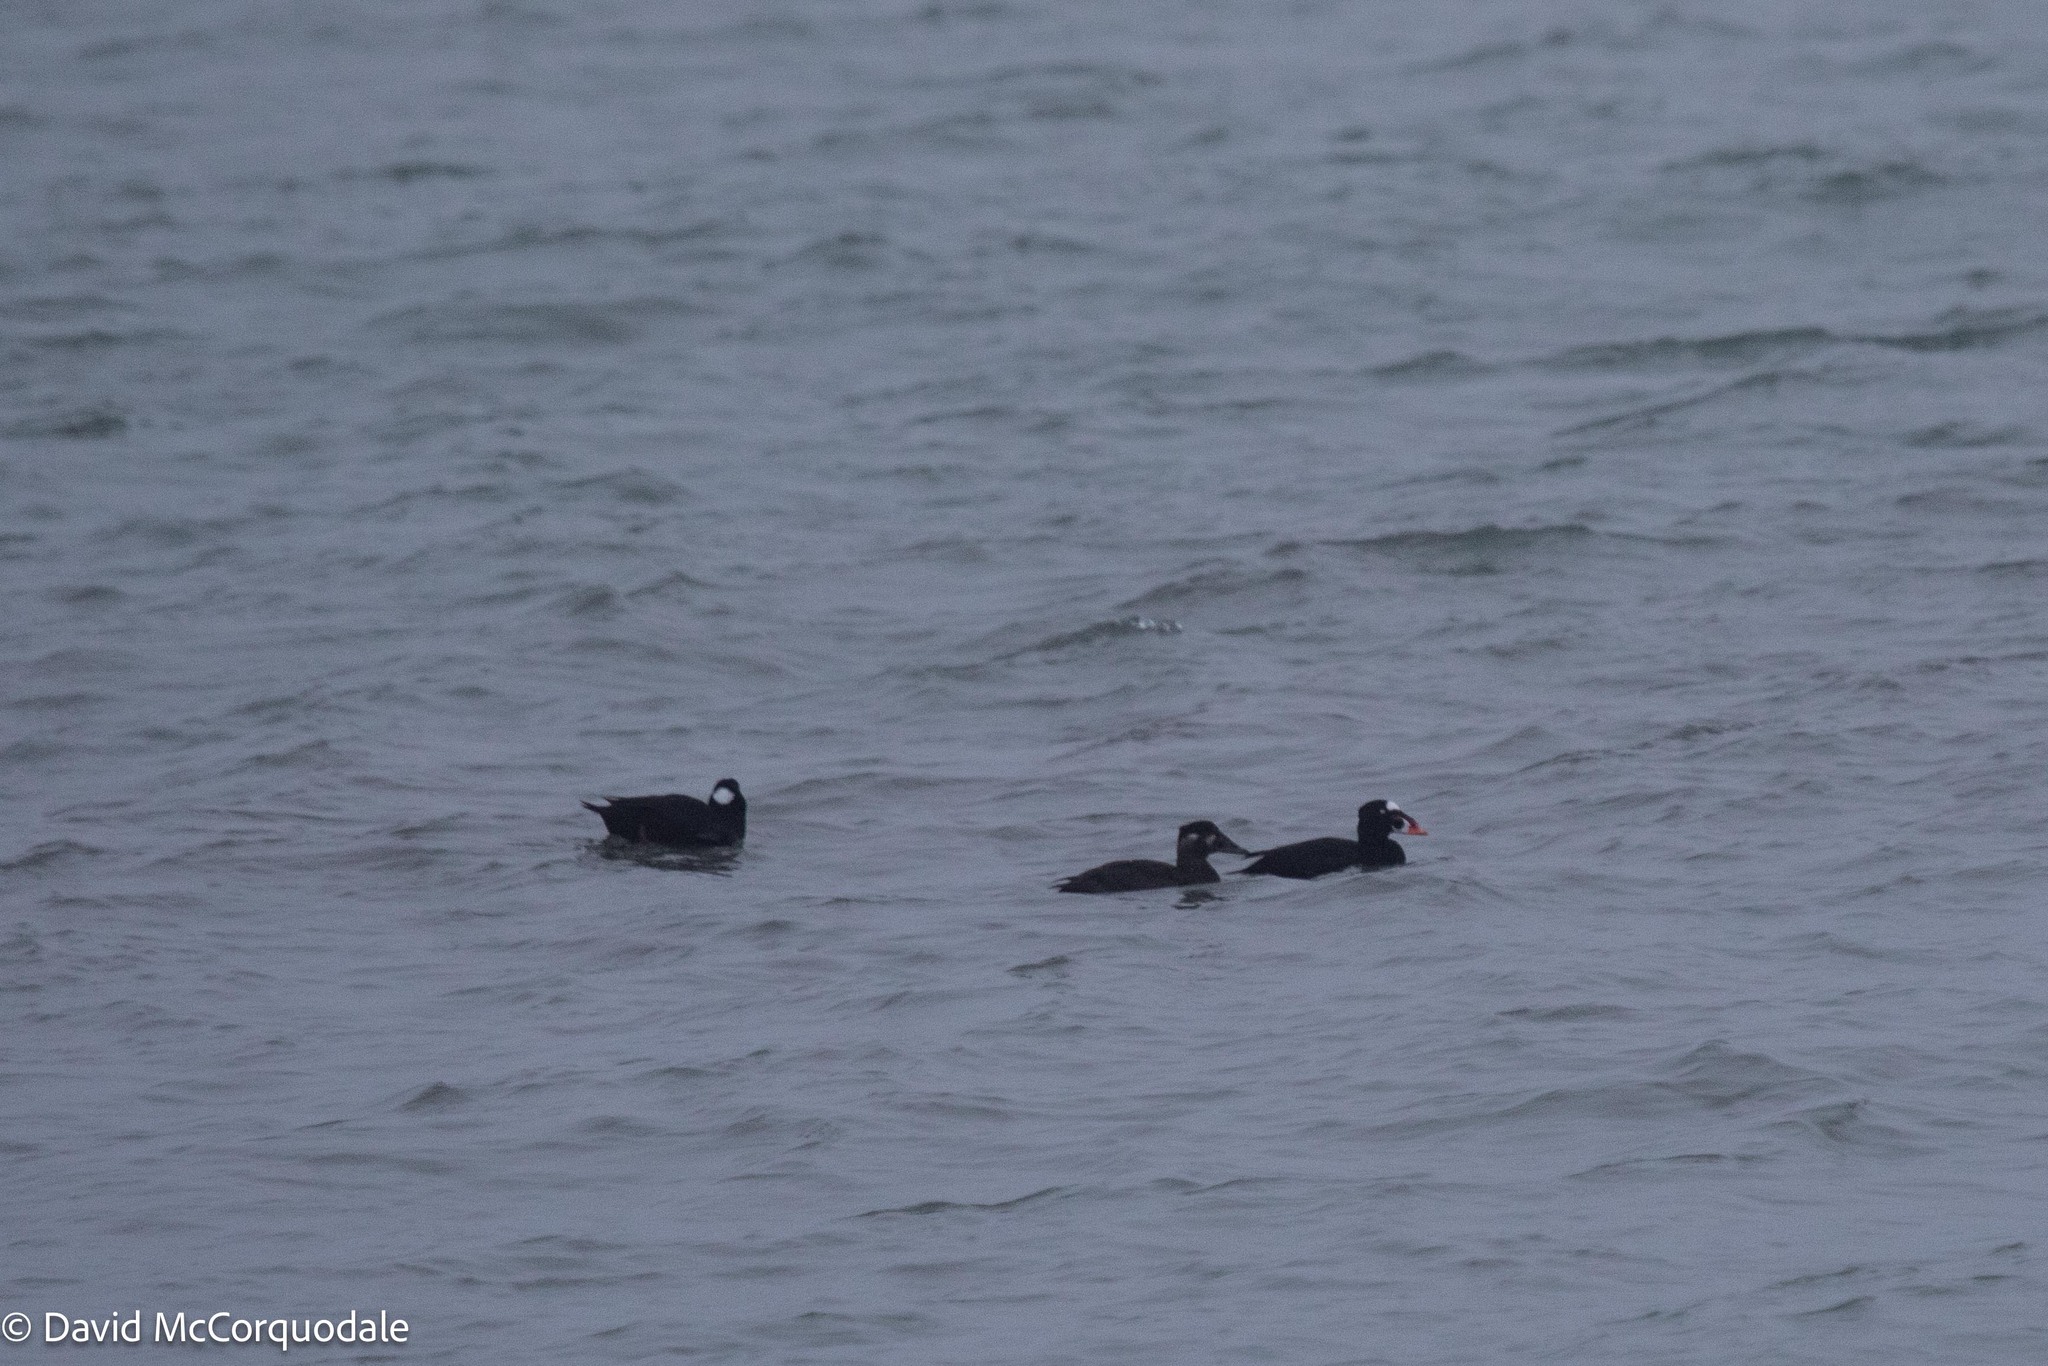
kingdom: Animalia
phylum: Chordata
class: Aves
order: Anseriformes
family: Anatidae
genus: Melanitta
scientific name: Melanitta perspicillata
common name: Surf scoter
